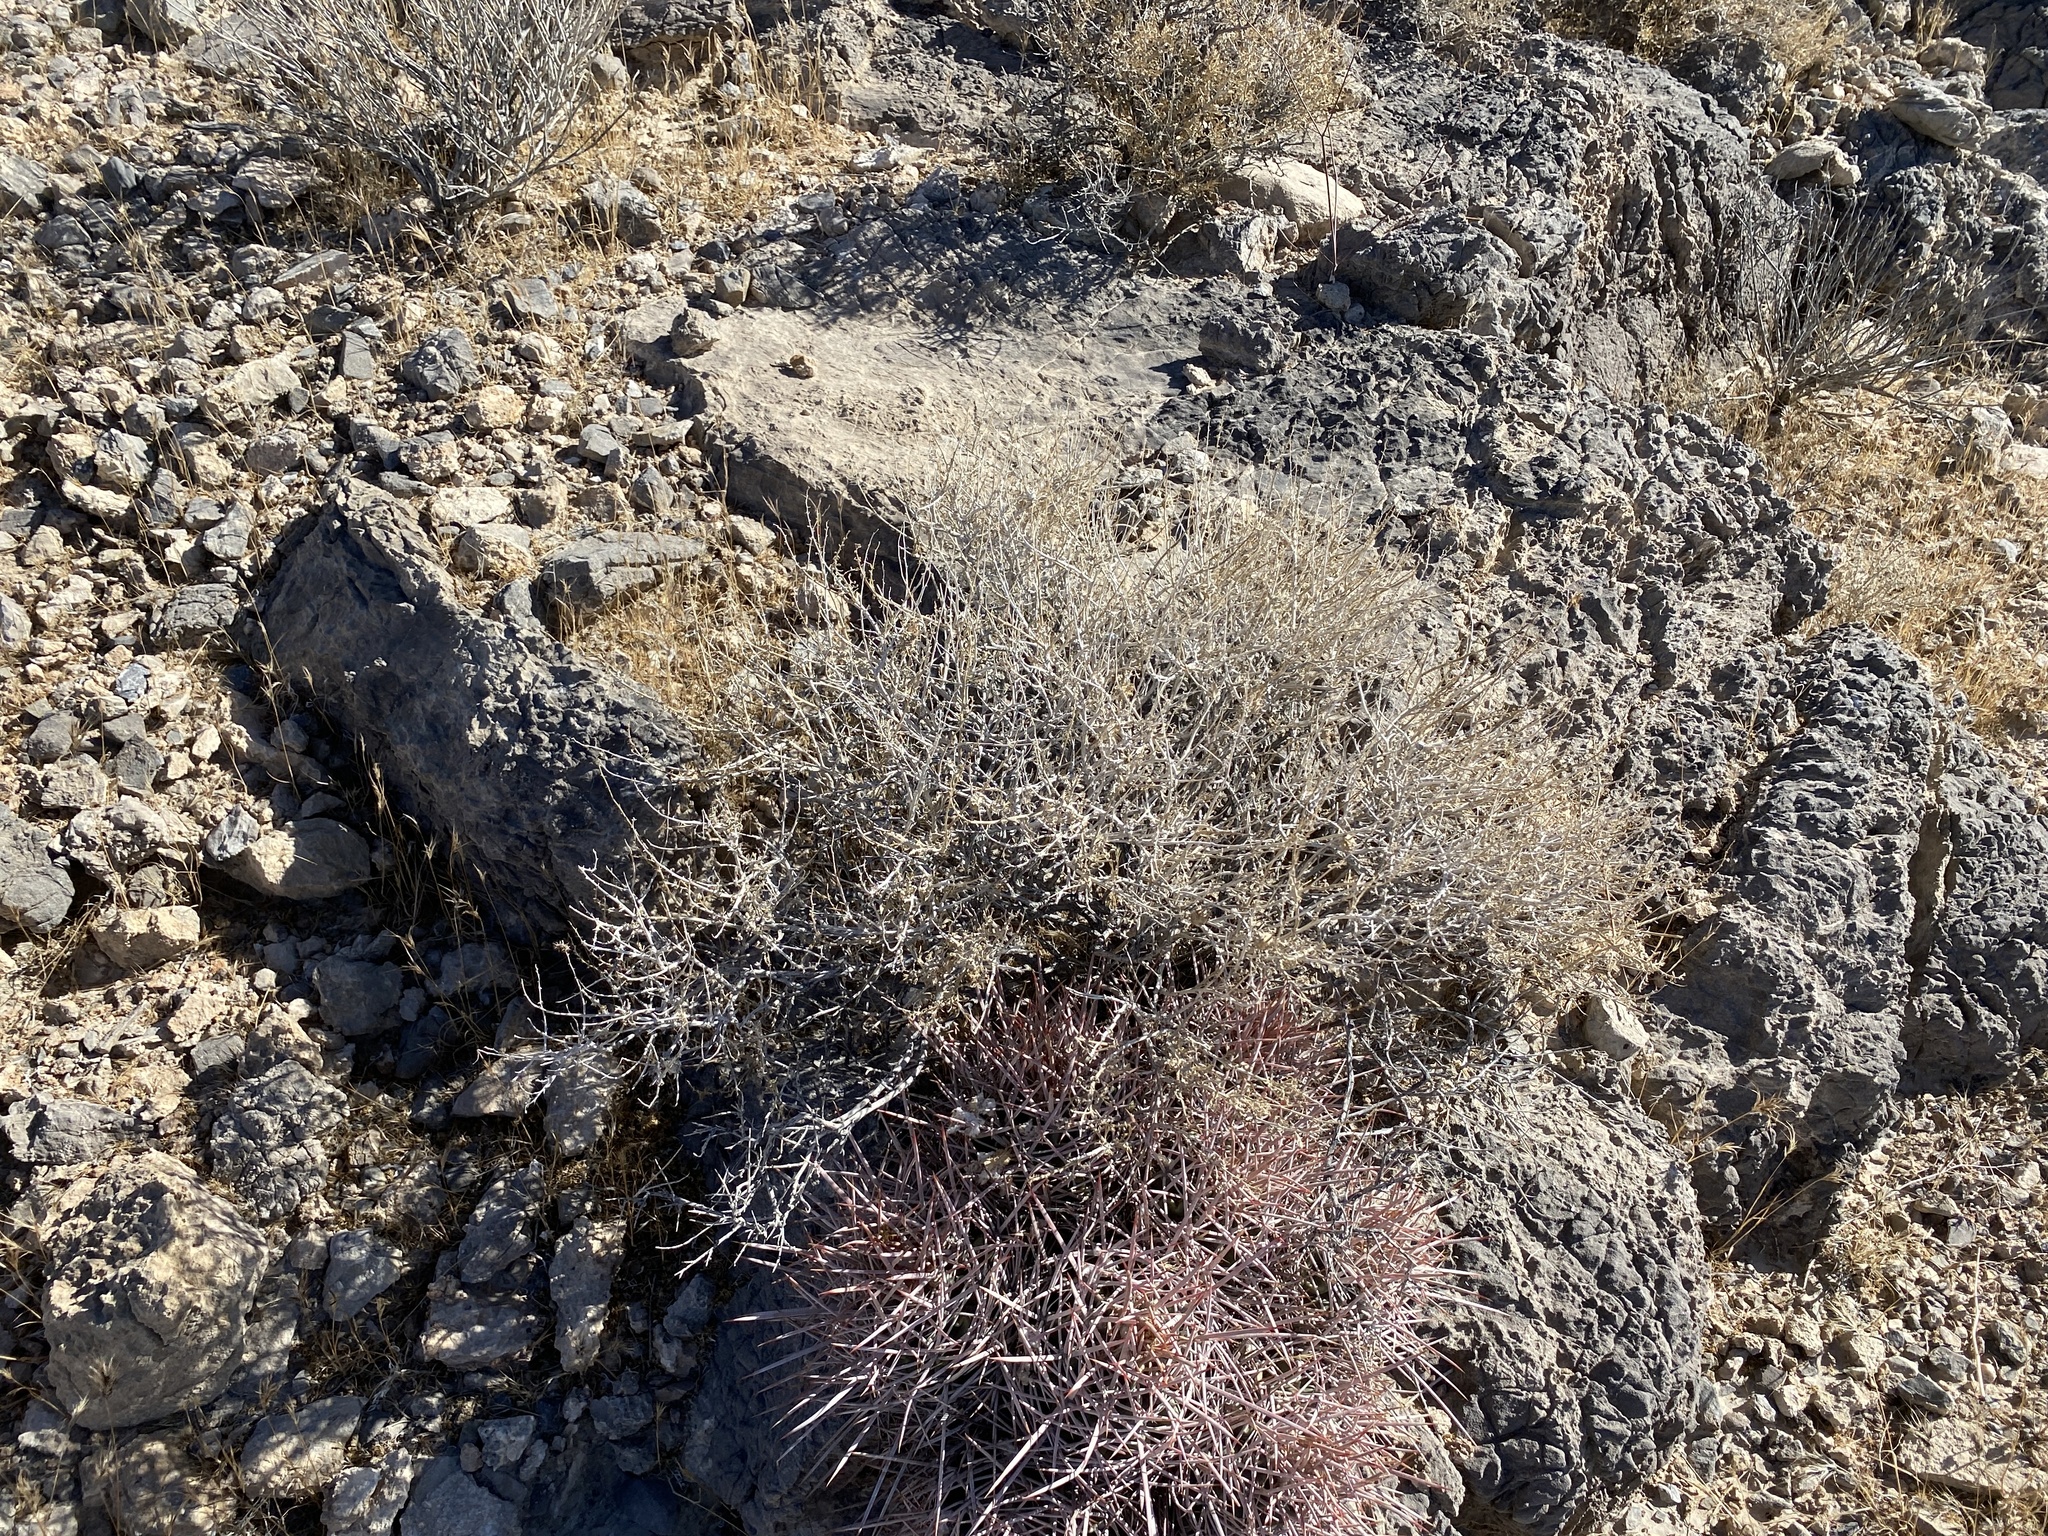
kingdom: Plantae
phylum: Tracheophyta
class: Magnoliopsida
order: Caryophyllales
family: Cactaceae
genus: Echinocactus
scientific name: Echinocactus polycephalus
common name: Cottontop cactus
